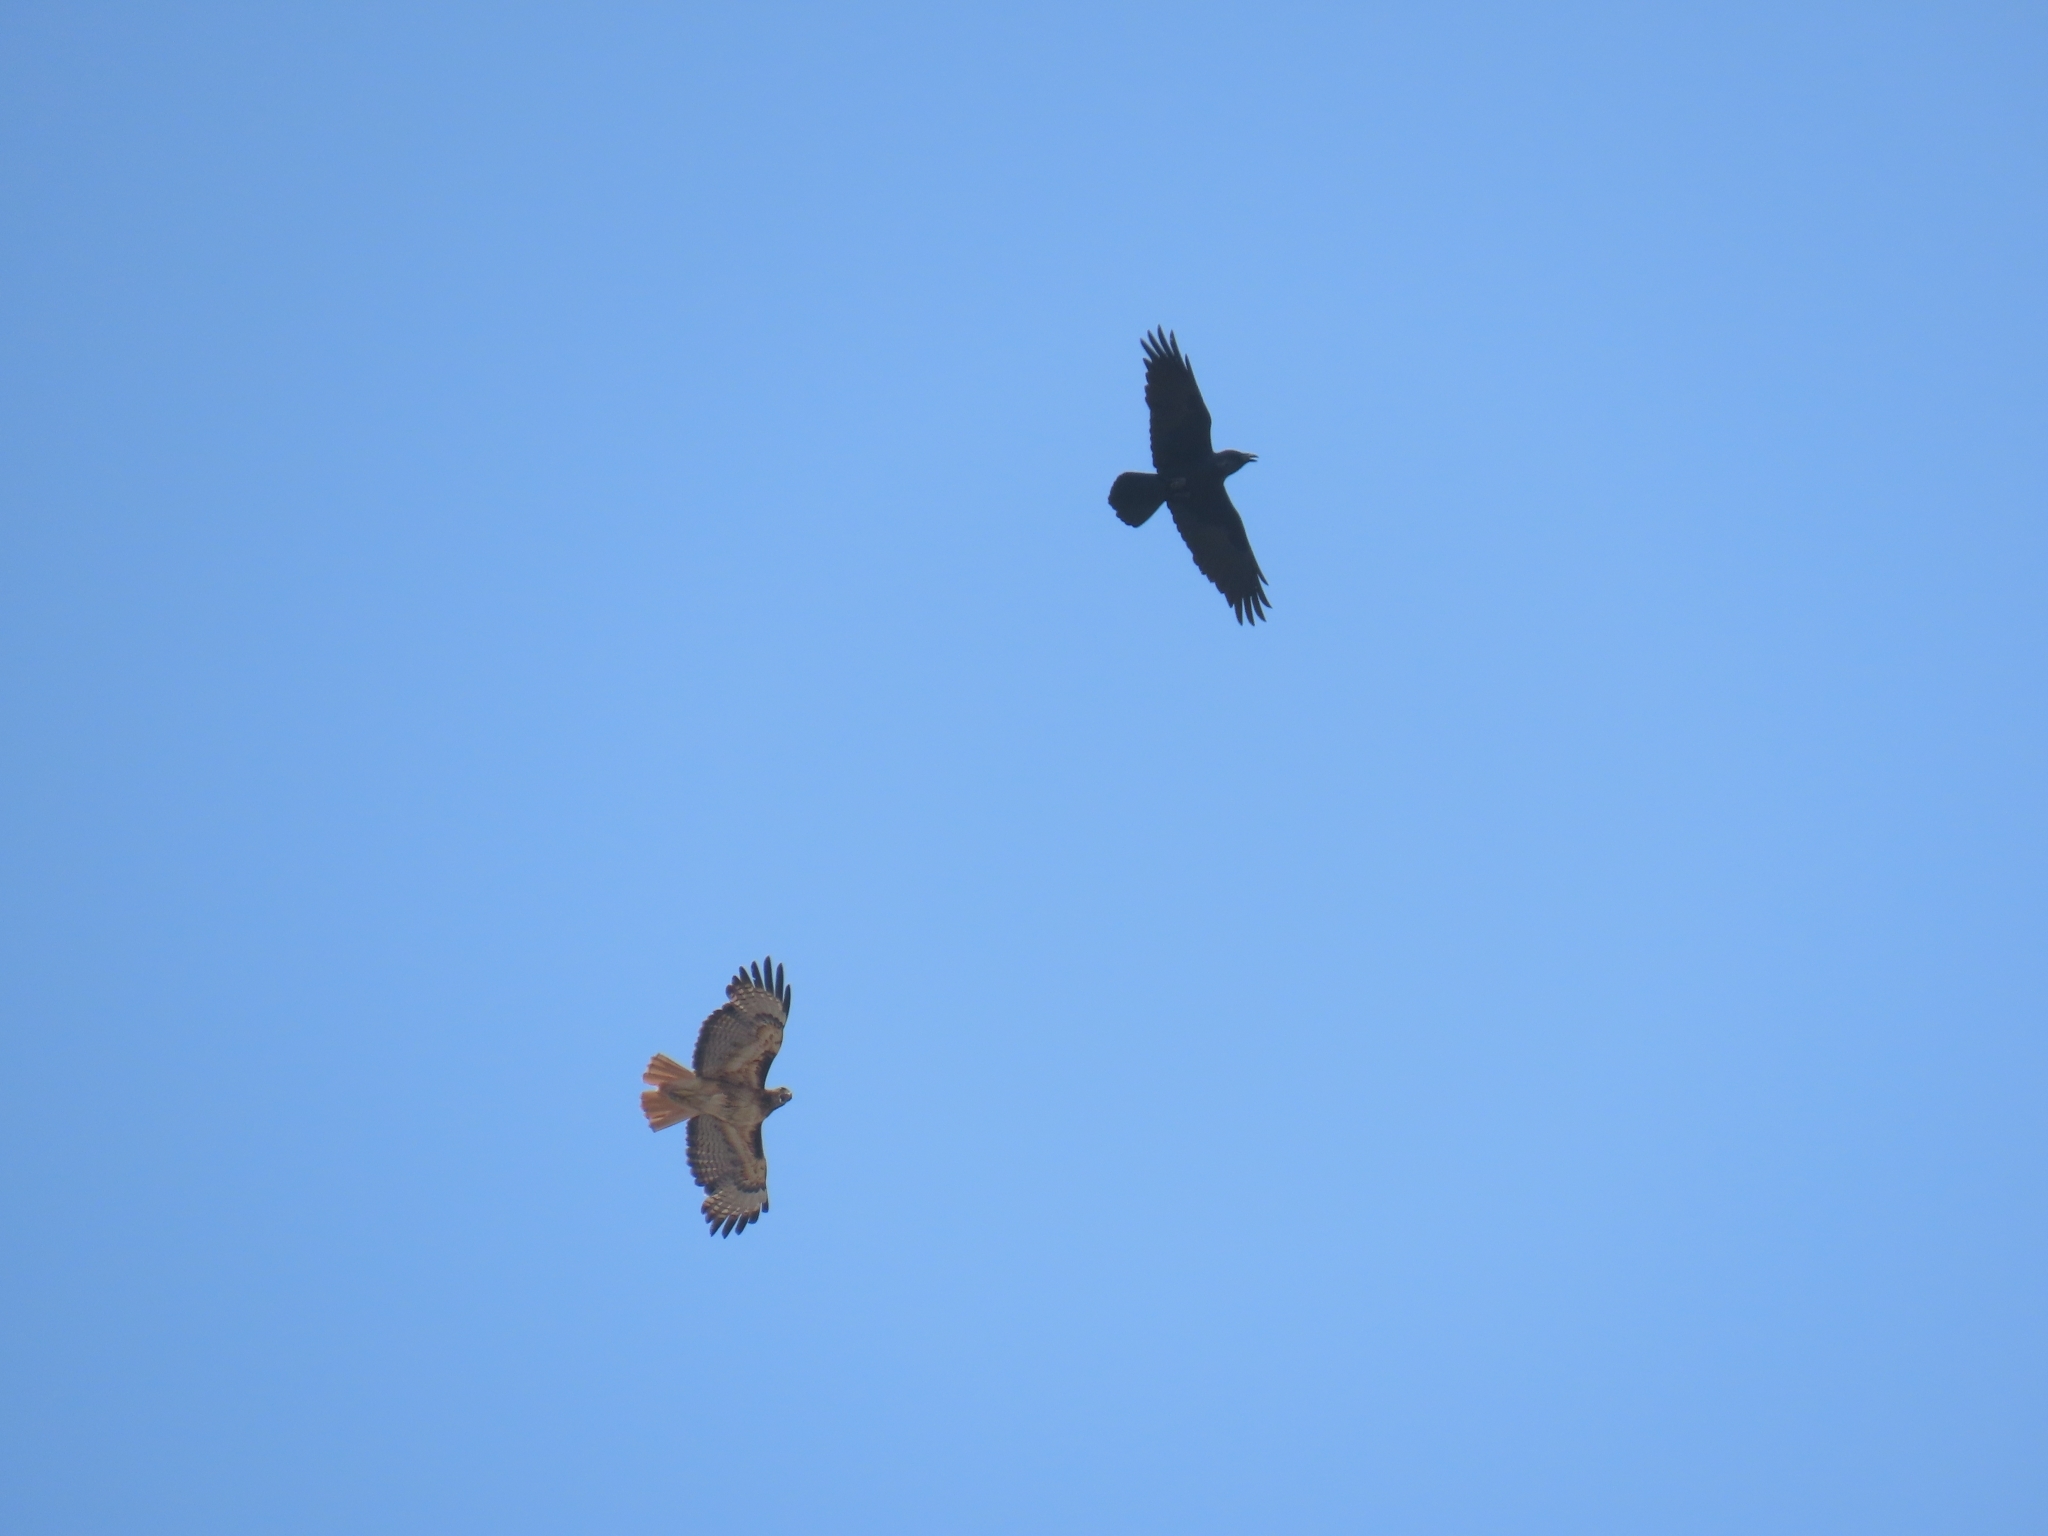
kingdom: Animalia
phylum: Chordata
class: Aves
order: Passeriformes
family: Corvidae
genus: Corvus
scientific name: Corvus corax
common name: Common raven
